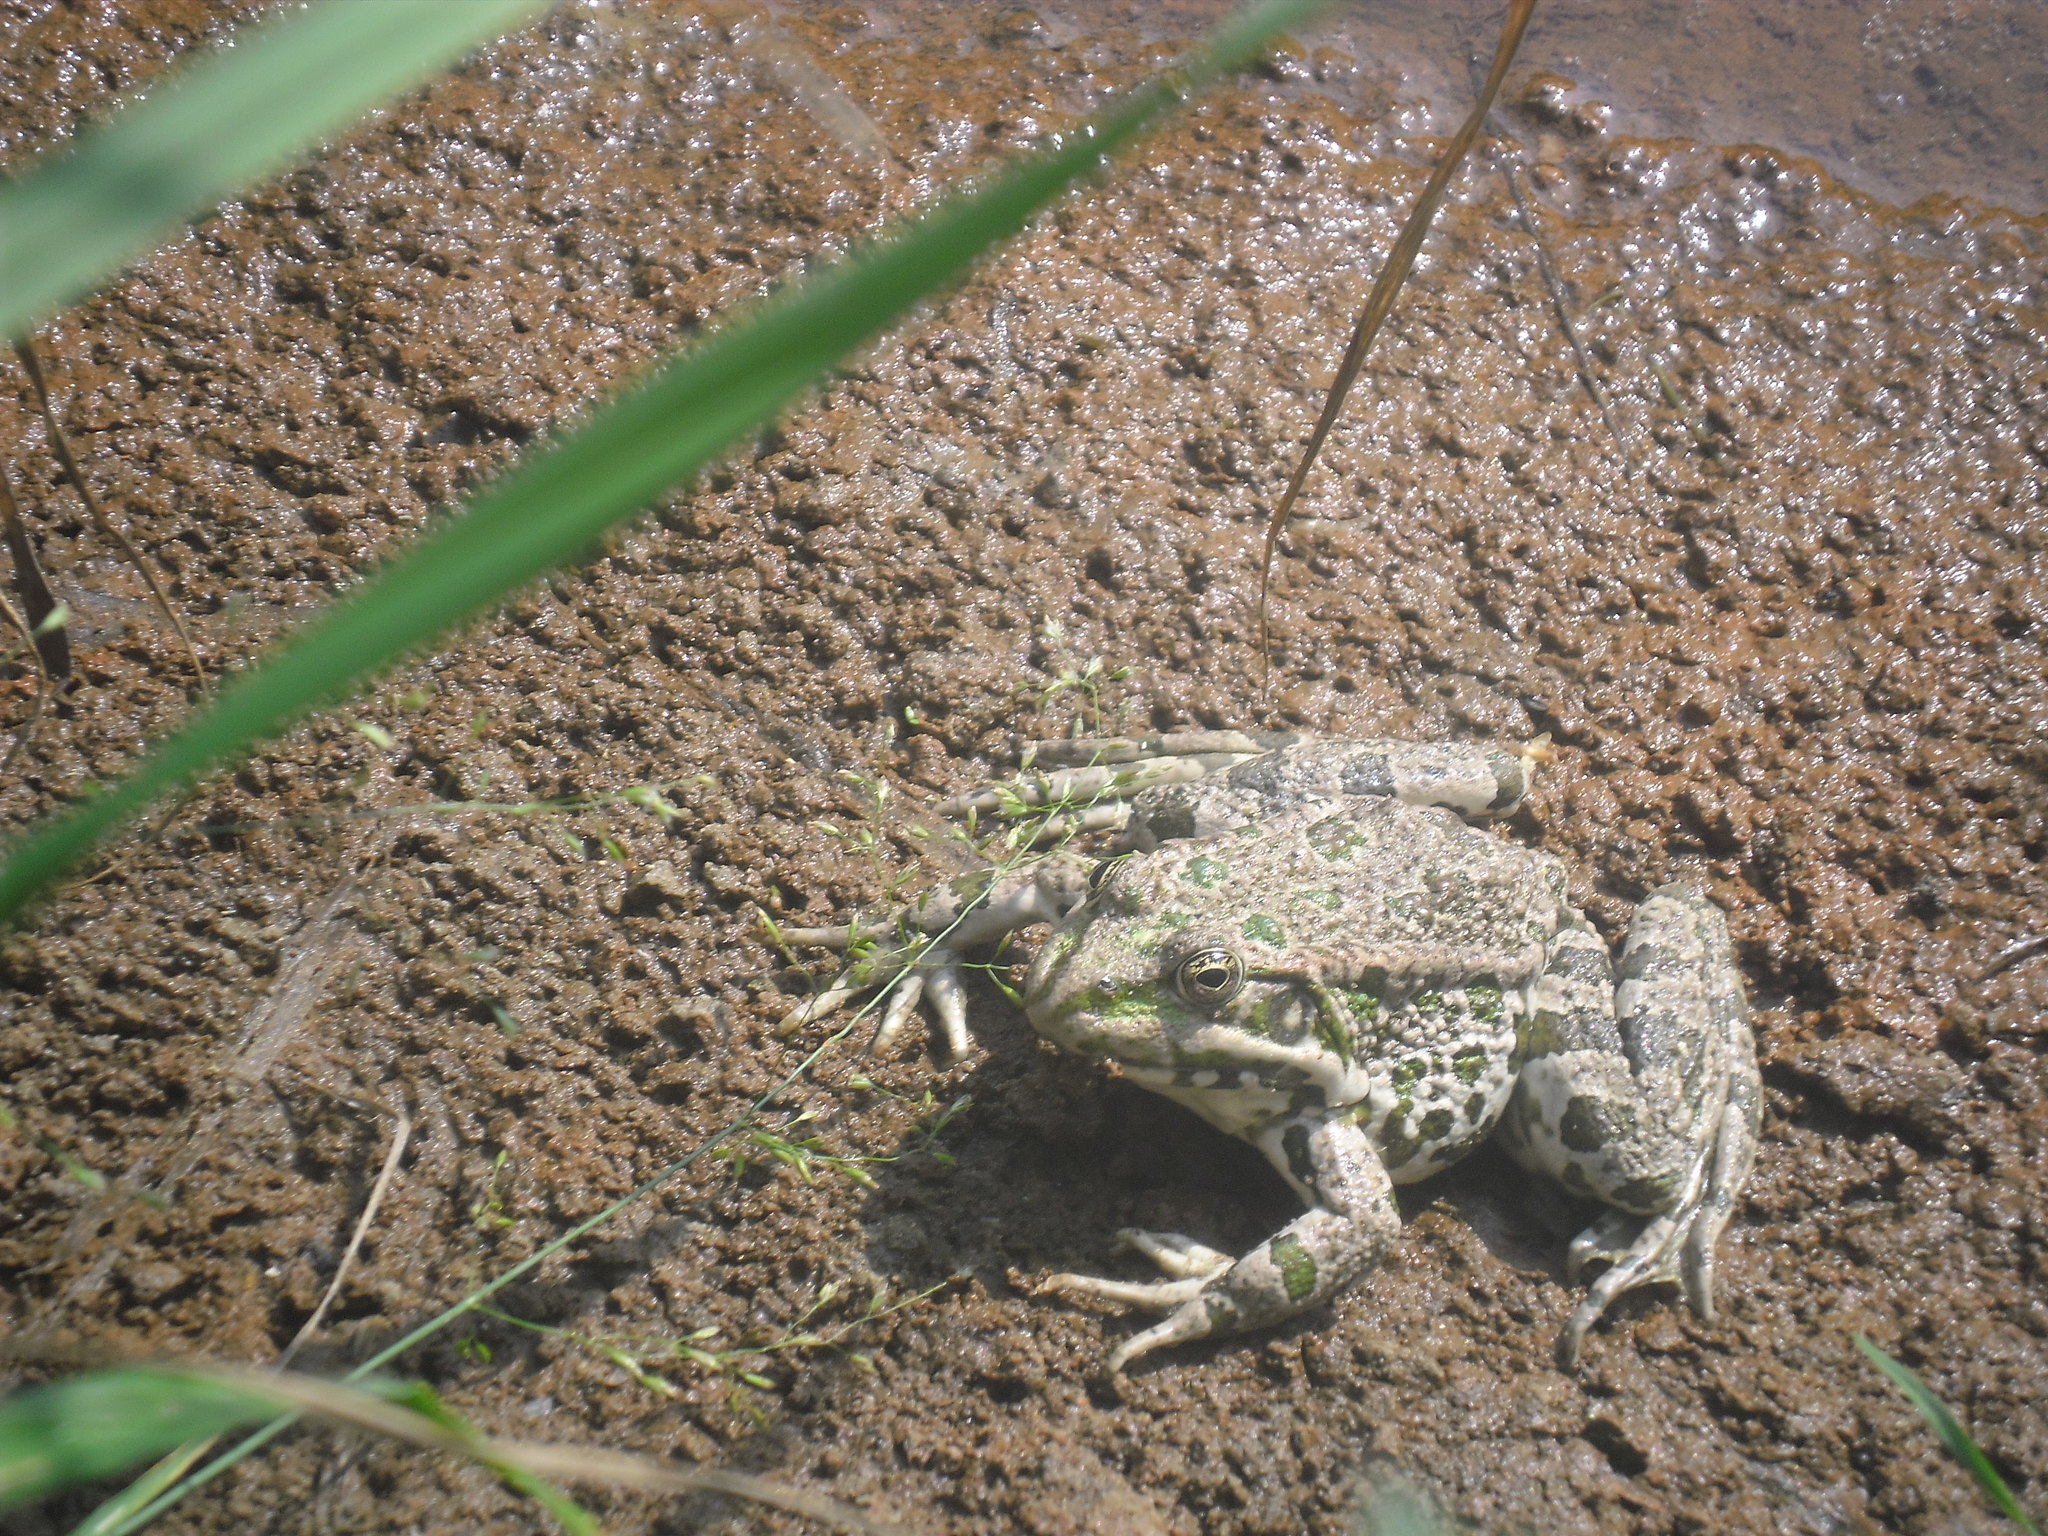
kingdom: Animalia
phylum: Chordata
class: Amphibia
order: Anura
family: Ranidae
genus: Pelophylax
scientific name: Pelophylax ridibundus
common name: Marsh frog
